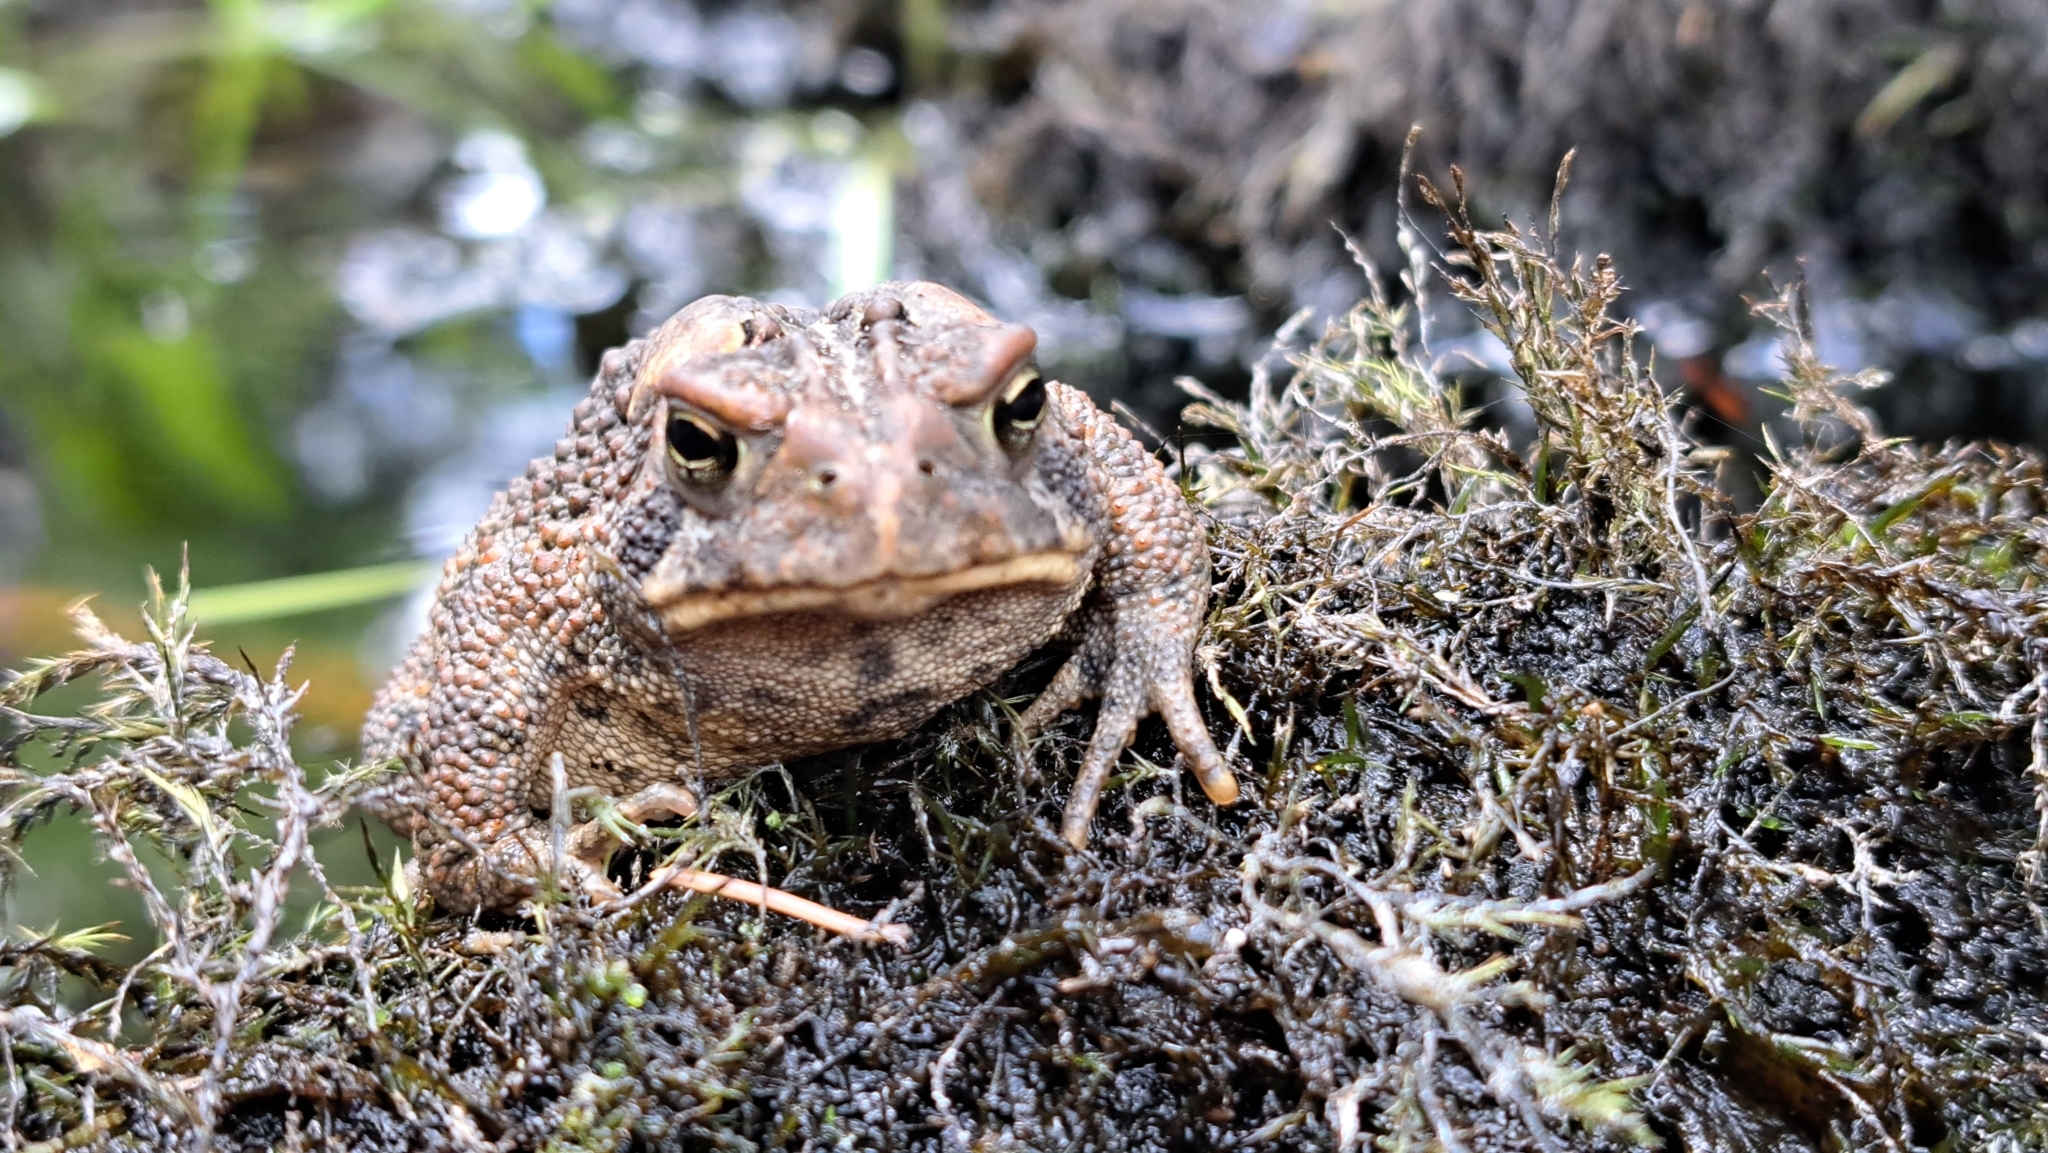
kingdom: Animalia
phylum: Chordata
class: Amphibia
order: Anura
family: Bufonidae
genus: Anaxyrus
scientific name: Anaxyrus americanus
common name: American toad
